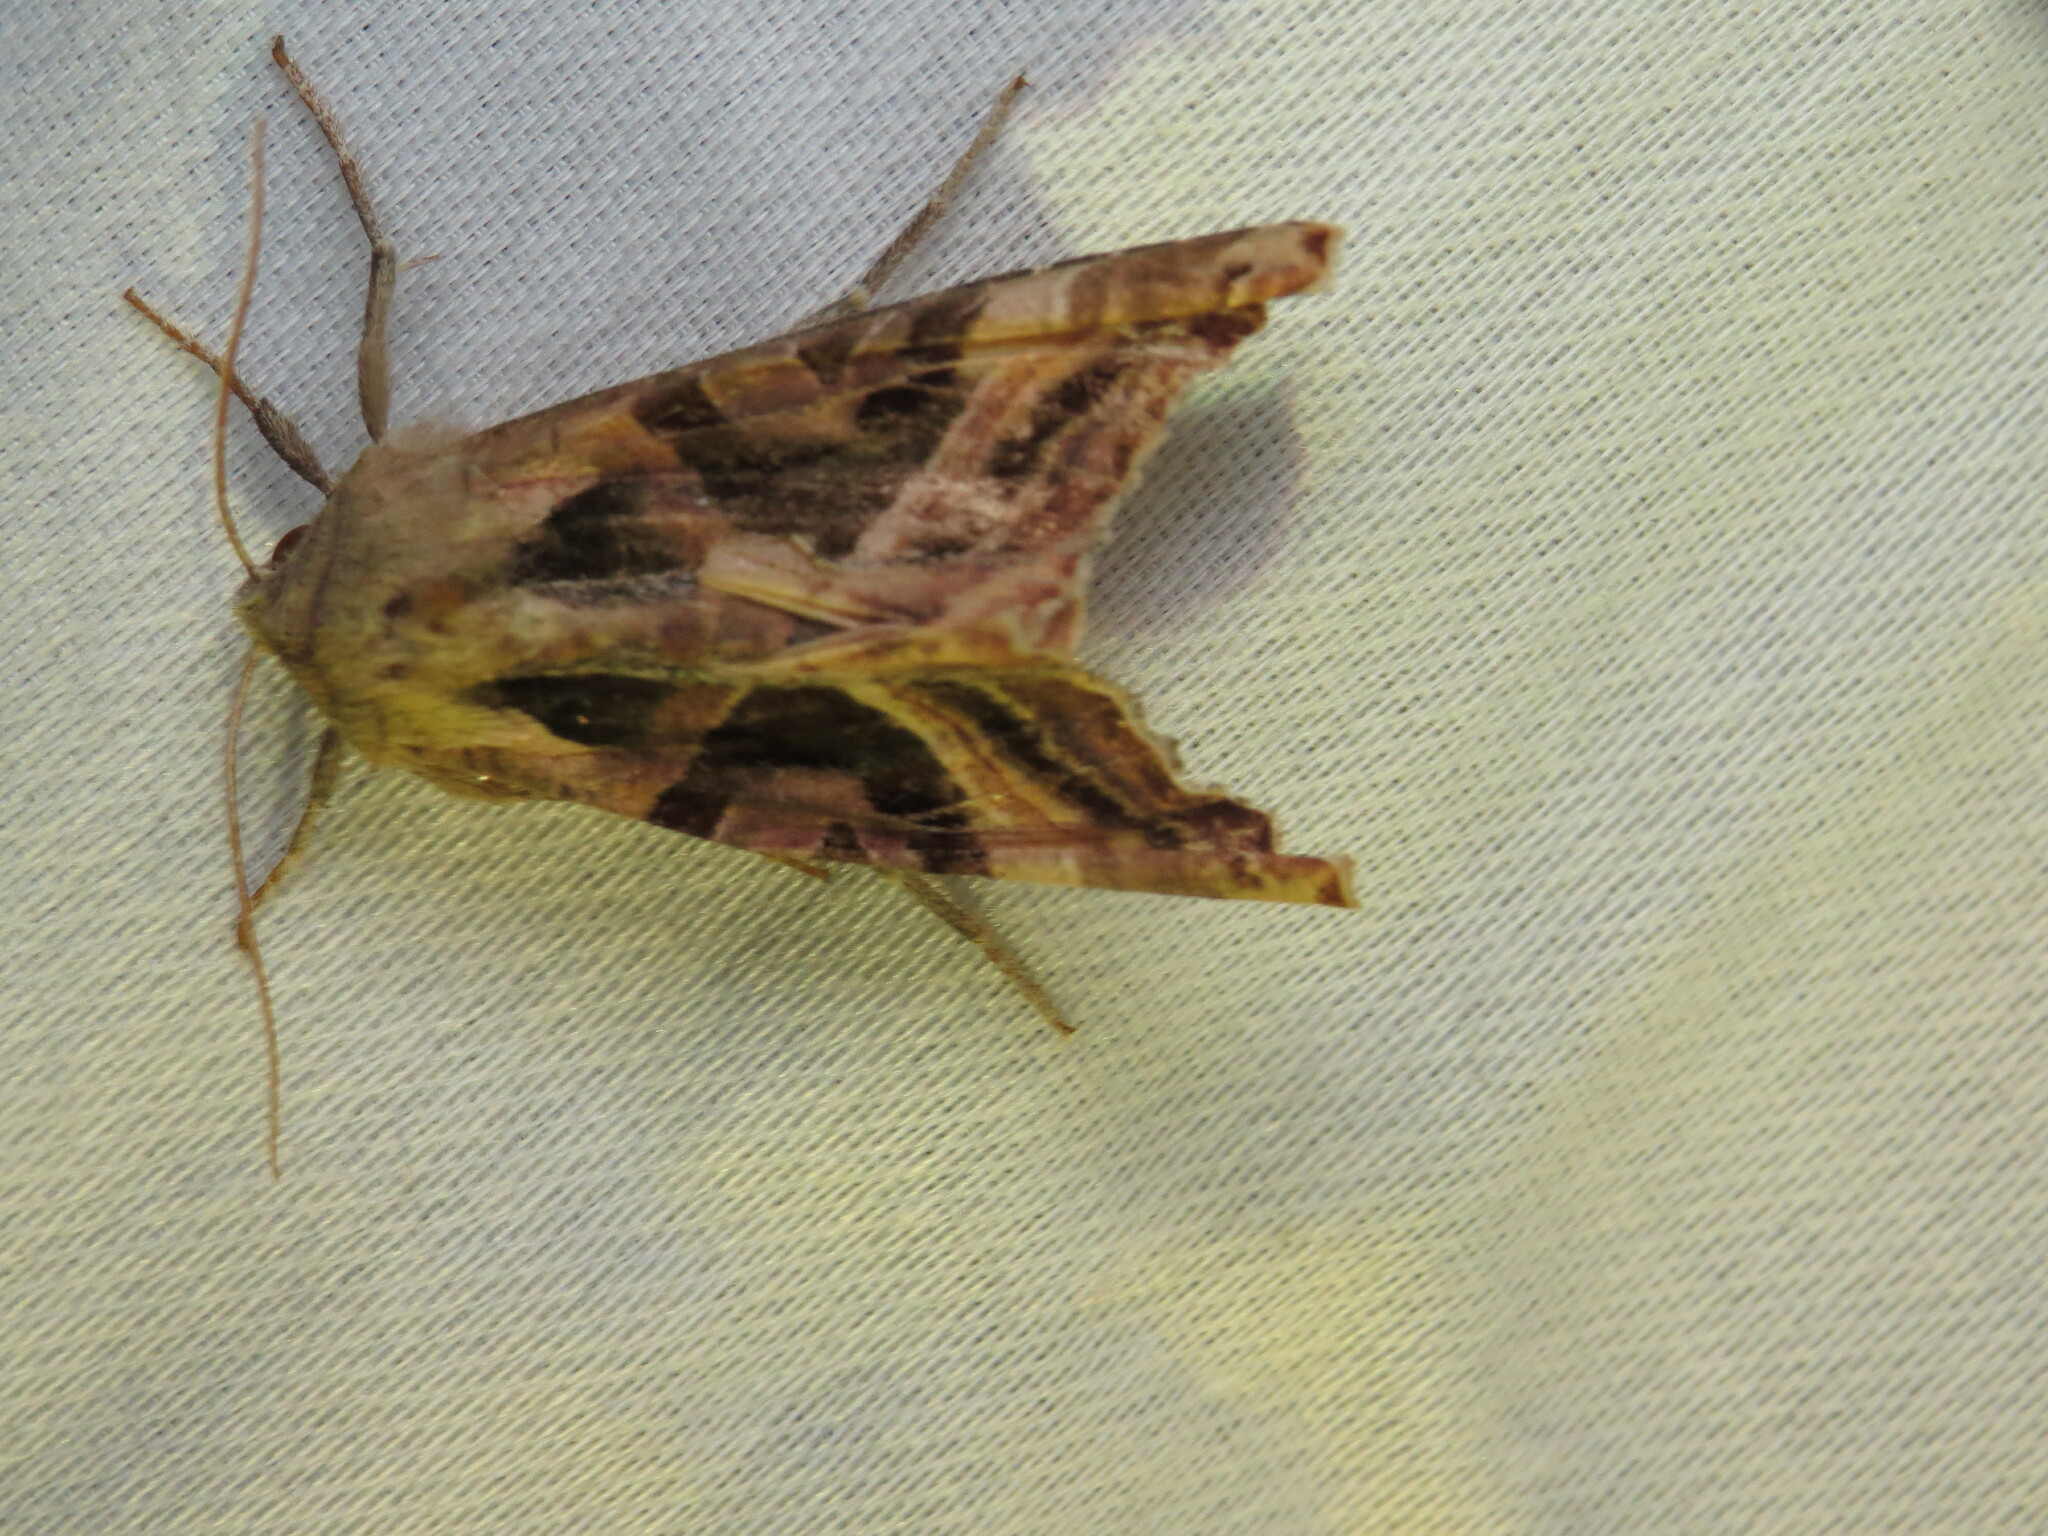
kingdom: Animalia
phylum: Arthropoda
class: Insecta
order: Lepidoptera
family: Noctuidae
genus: Phlogophora
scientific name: Phlogophora iris
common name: Olive angle shades
